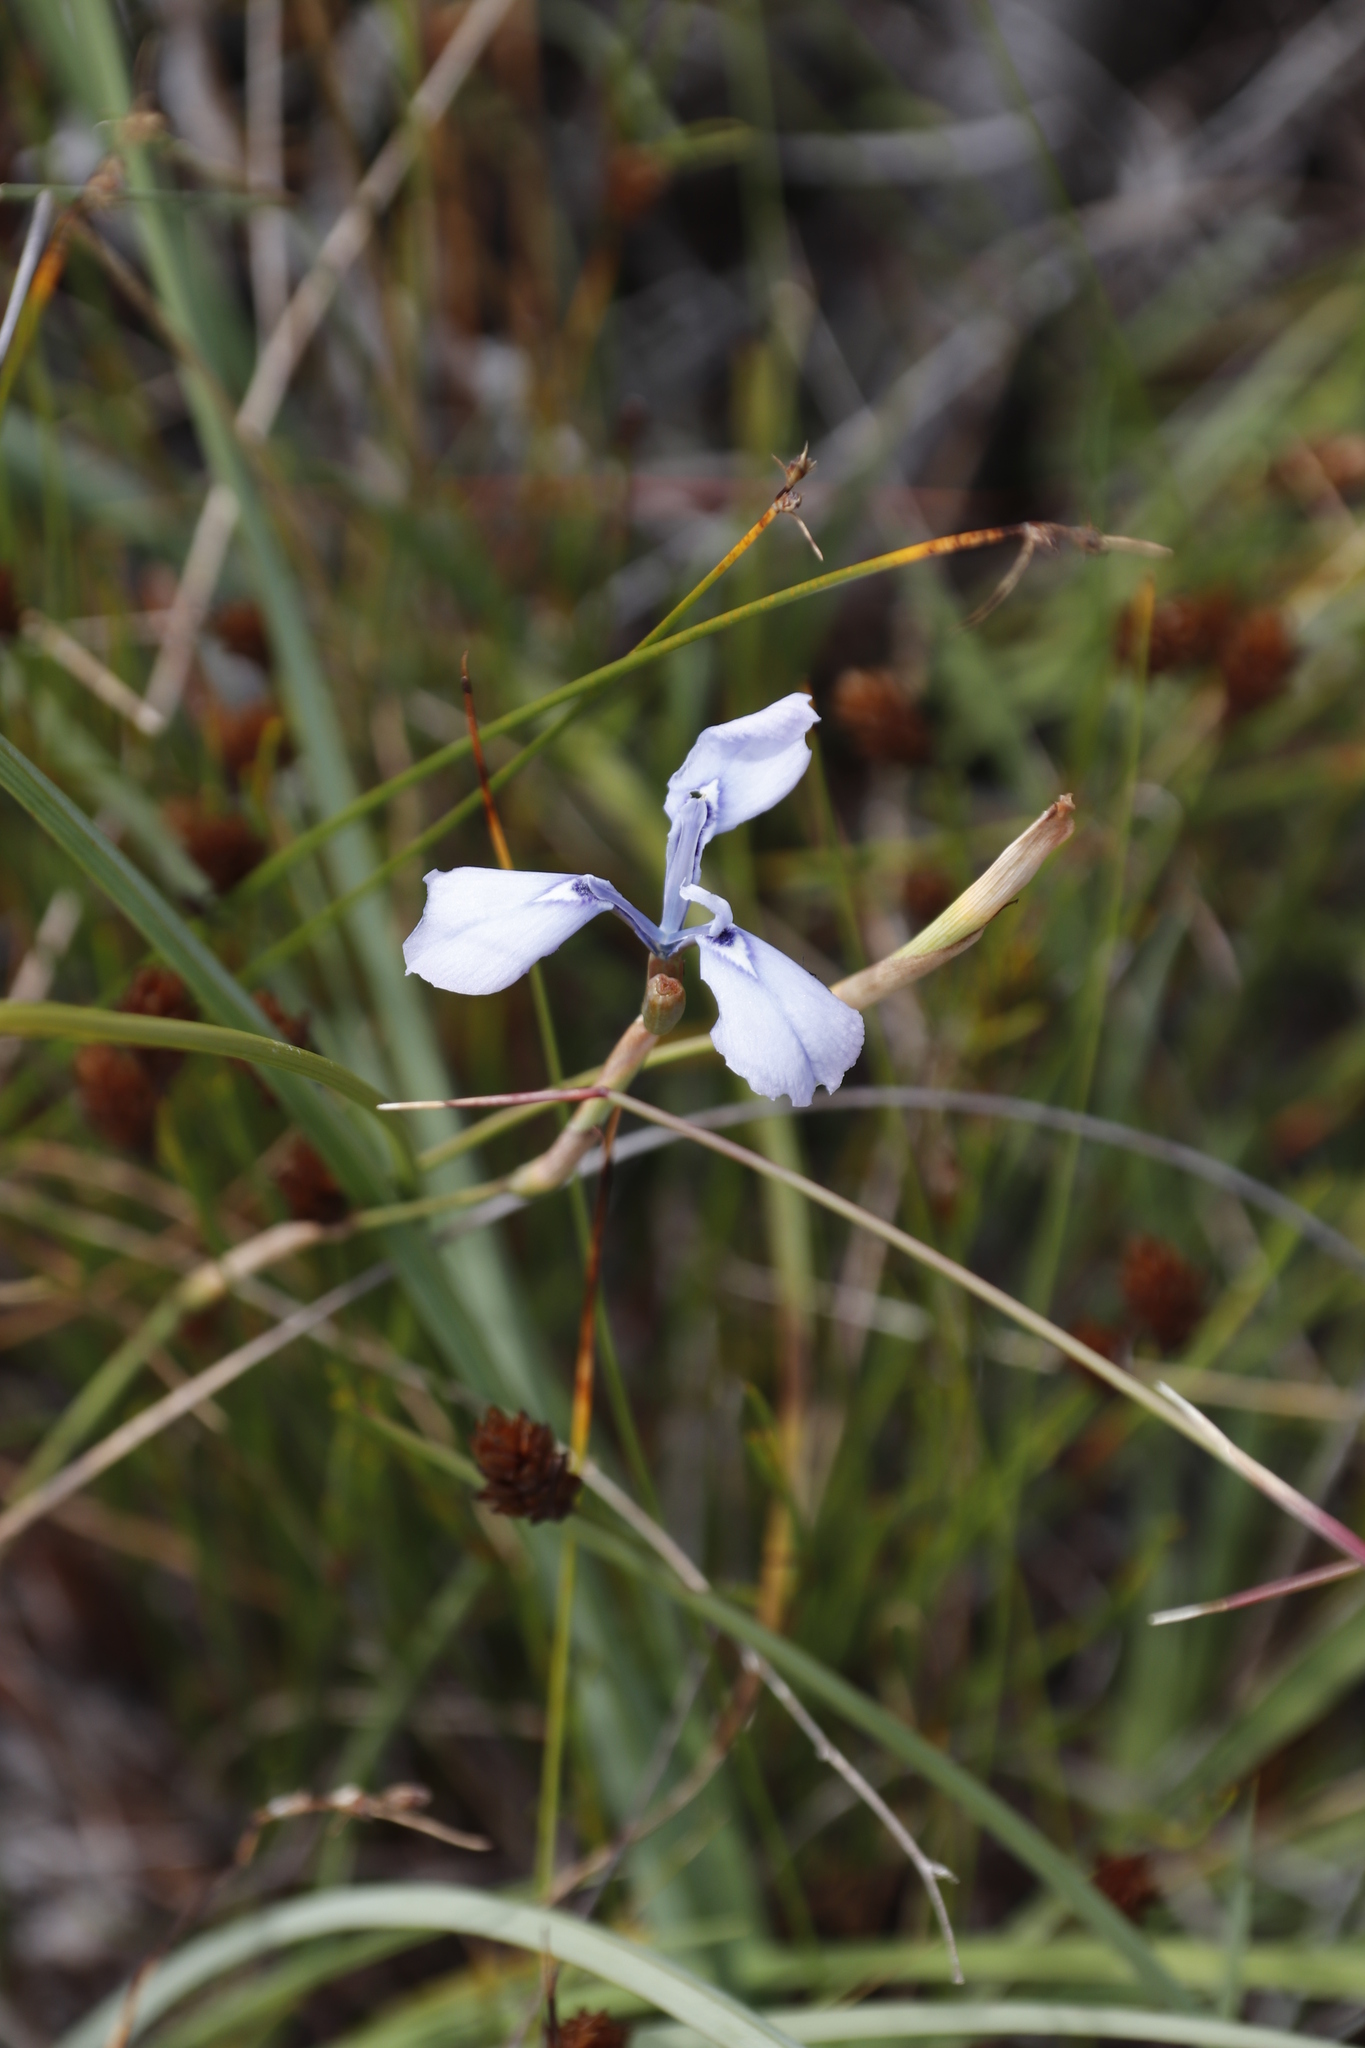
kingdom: Plantae
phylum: Tracheophyta
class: Liliopsida
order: Asparagales
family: Iridaceae
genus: Moraea
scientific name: Moraea tripetala
